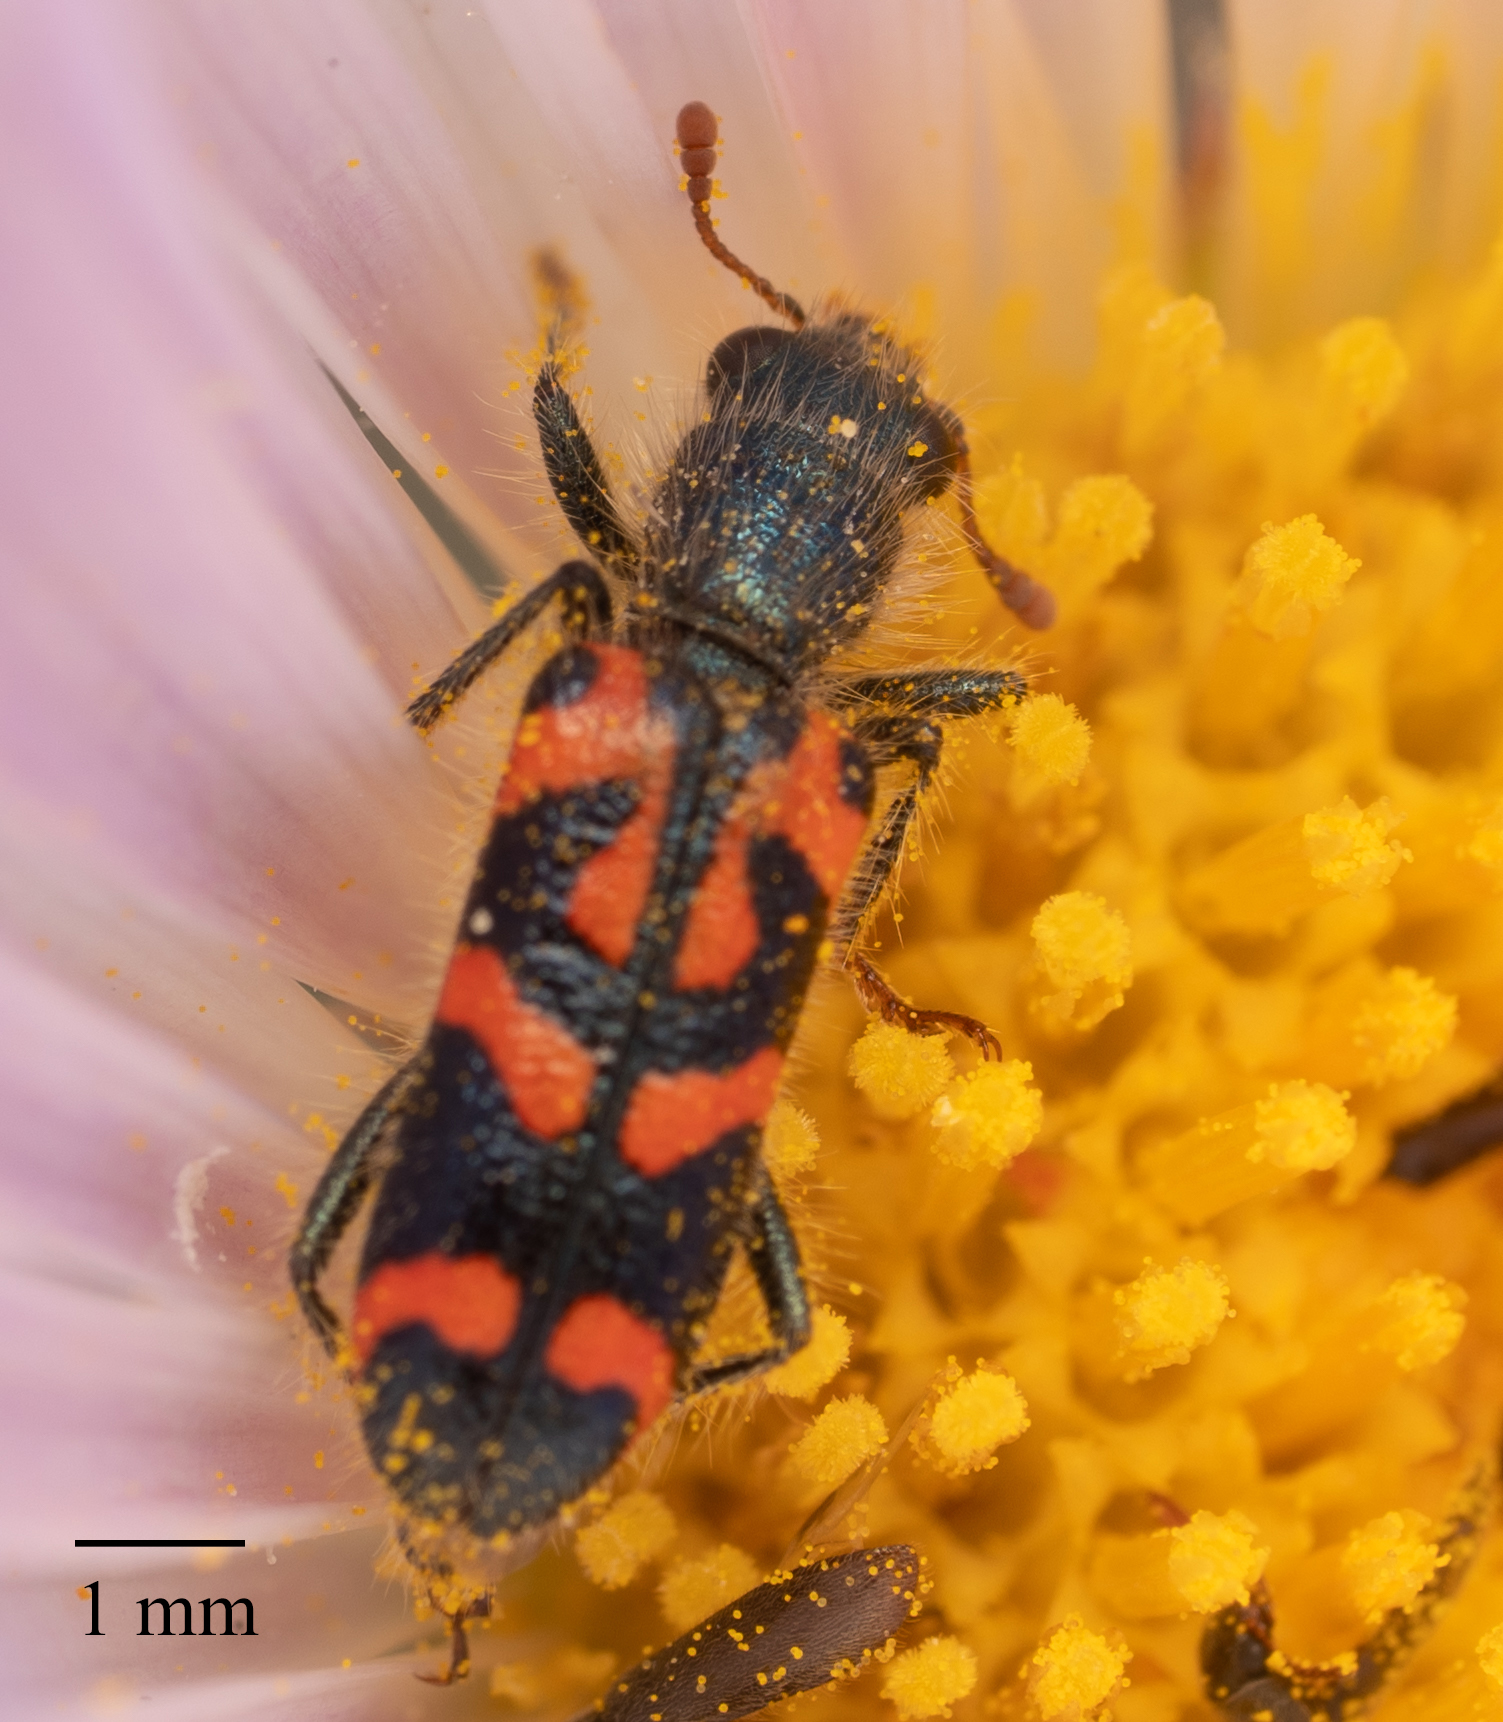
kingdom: Animalia
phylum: Arthropoda
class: Insecta
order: Coleoptera
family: Cleridae
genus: Trichodes
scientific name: Trichodes ornatus
